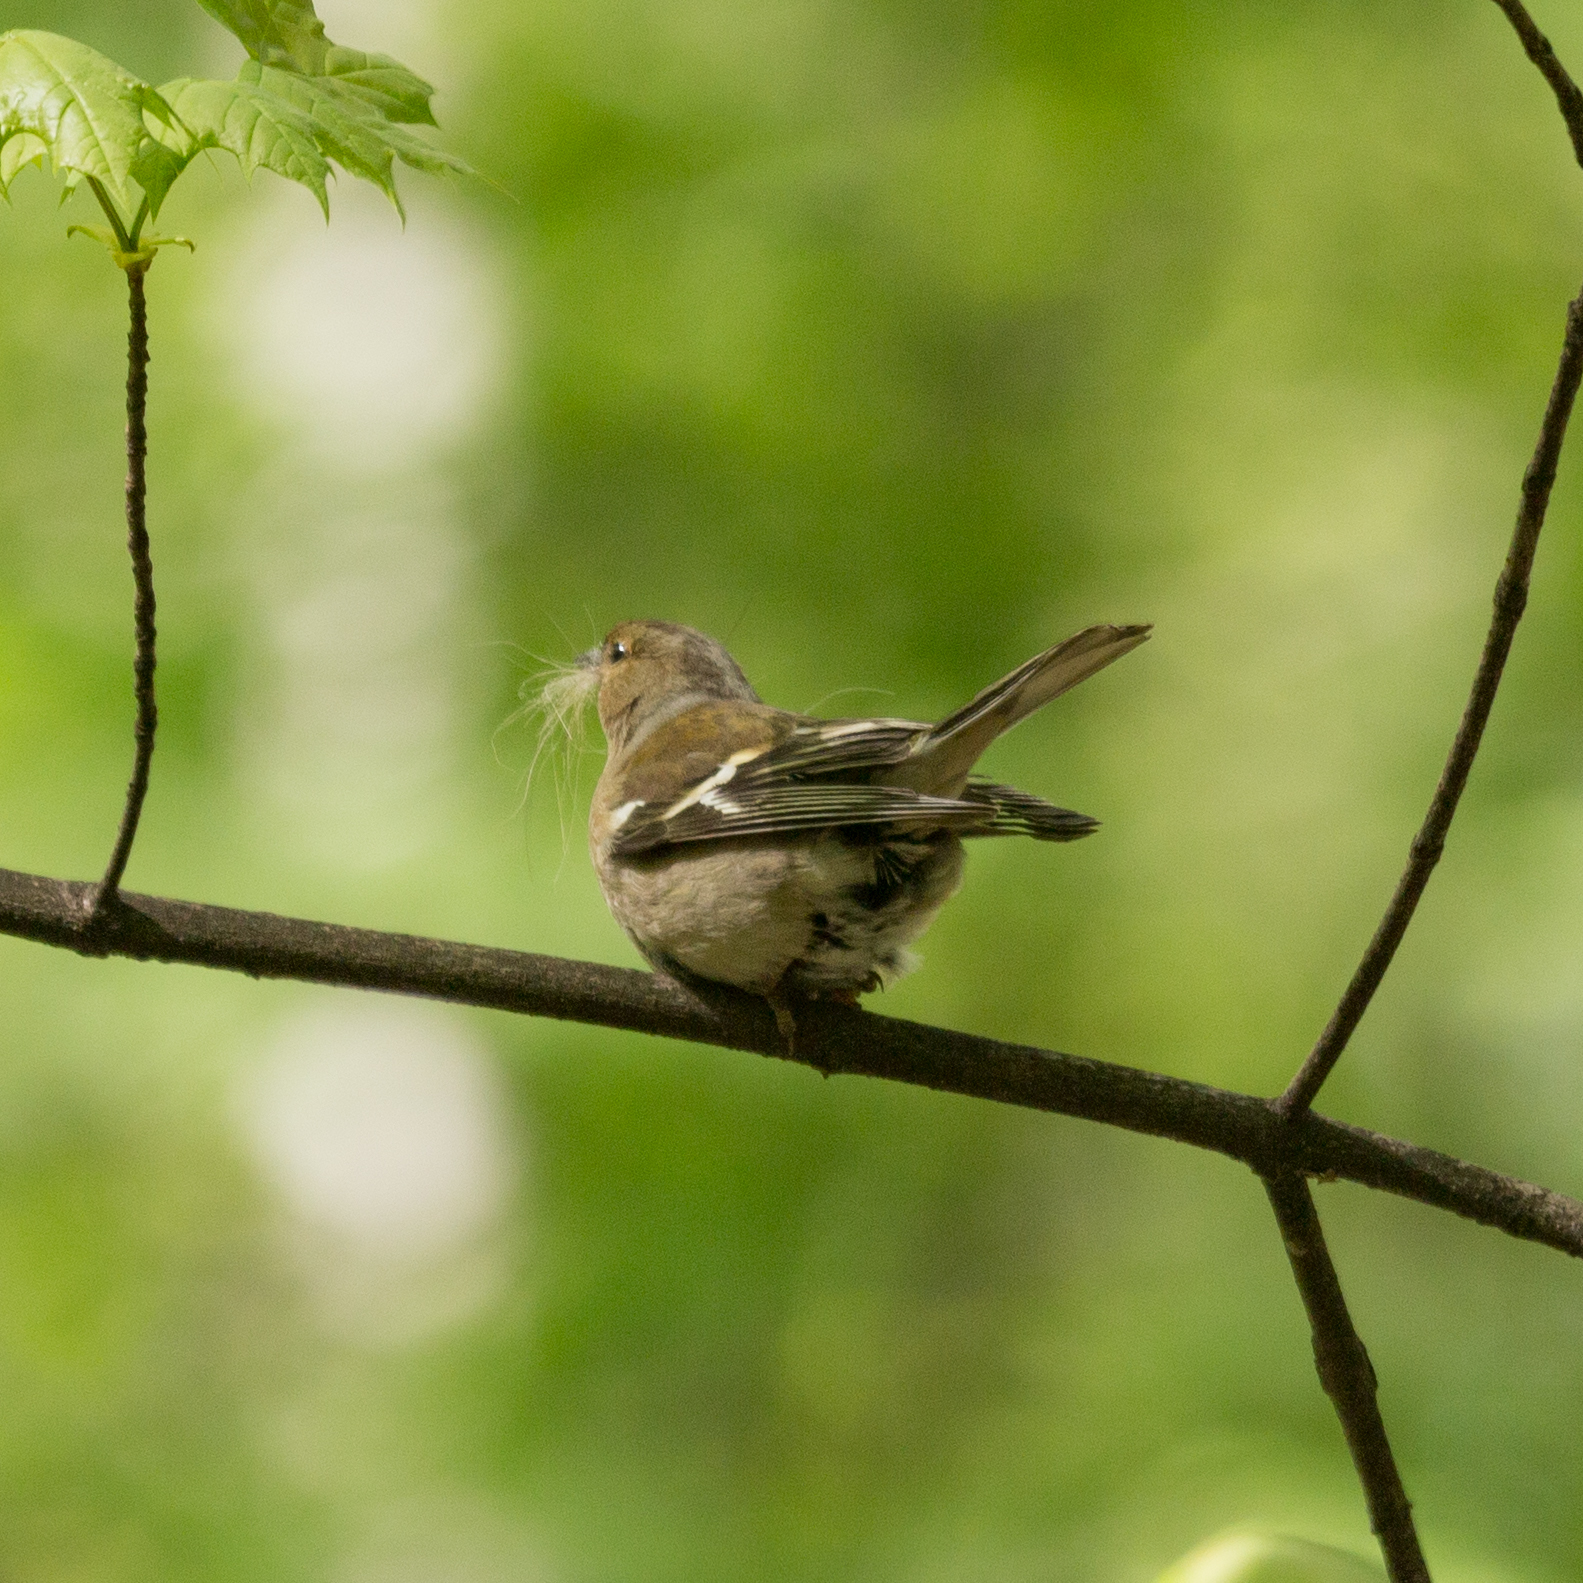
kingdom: Animalia
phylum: Chordata
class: Aves
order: Passeriformes
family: Fringillidae
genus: Fringilla
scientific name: Fringilla coelebs
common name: Common chaffinch
